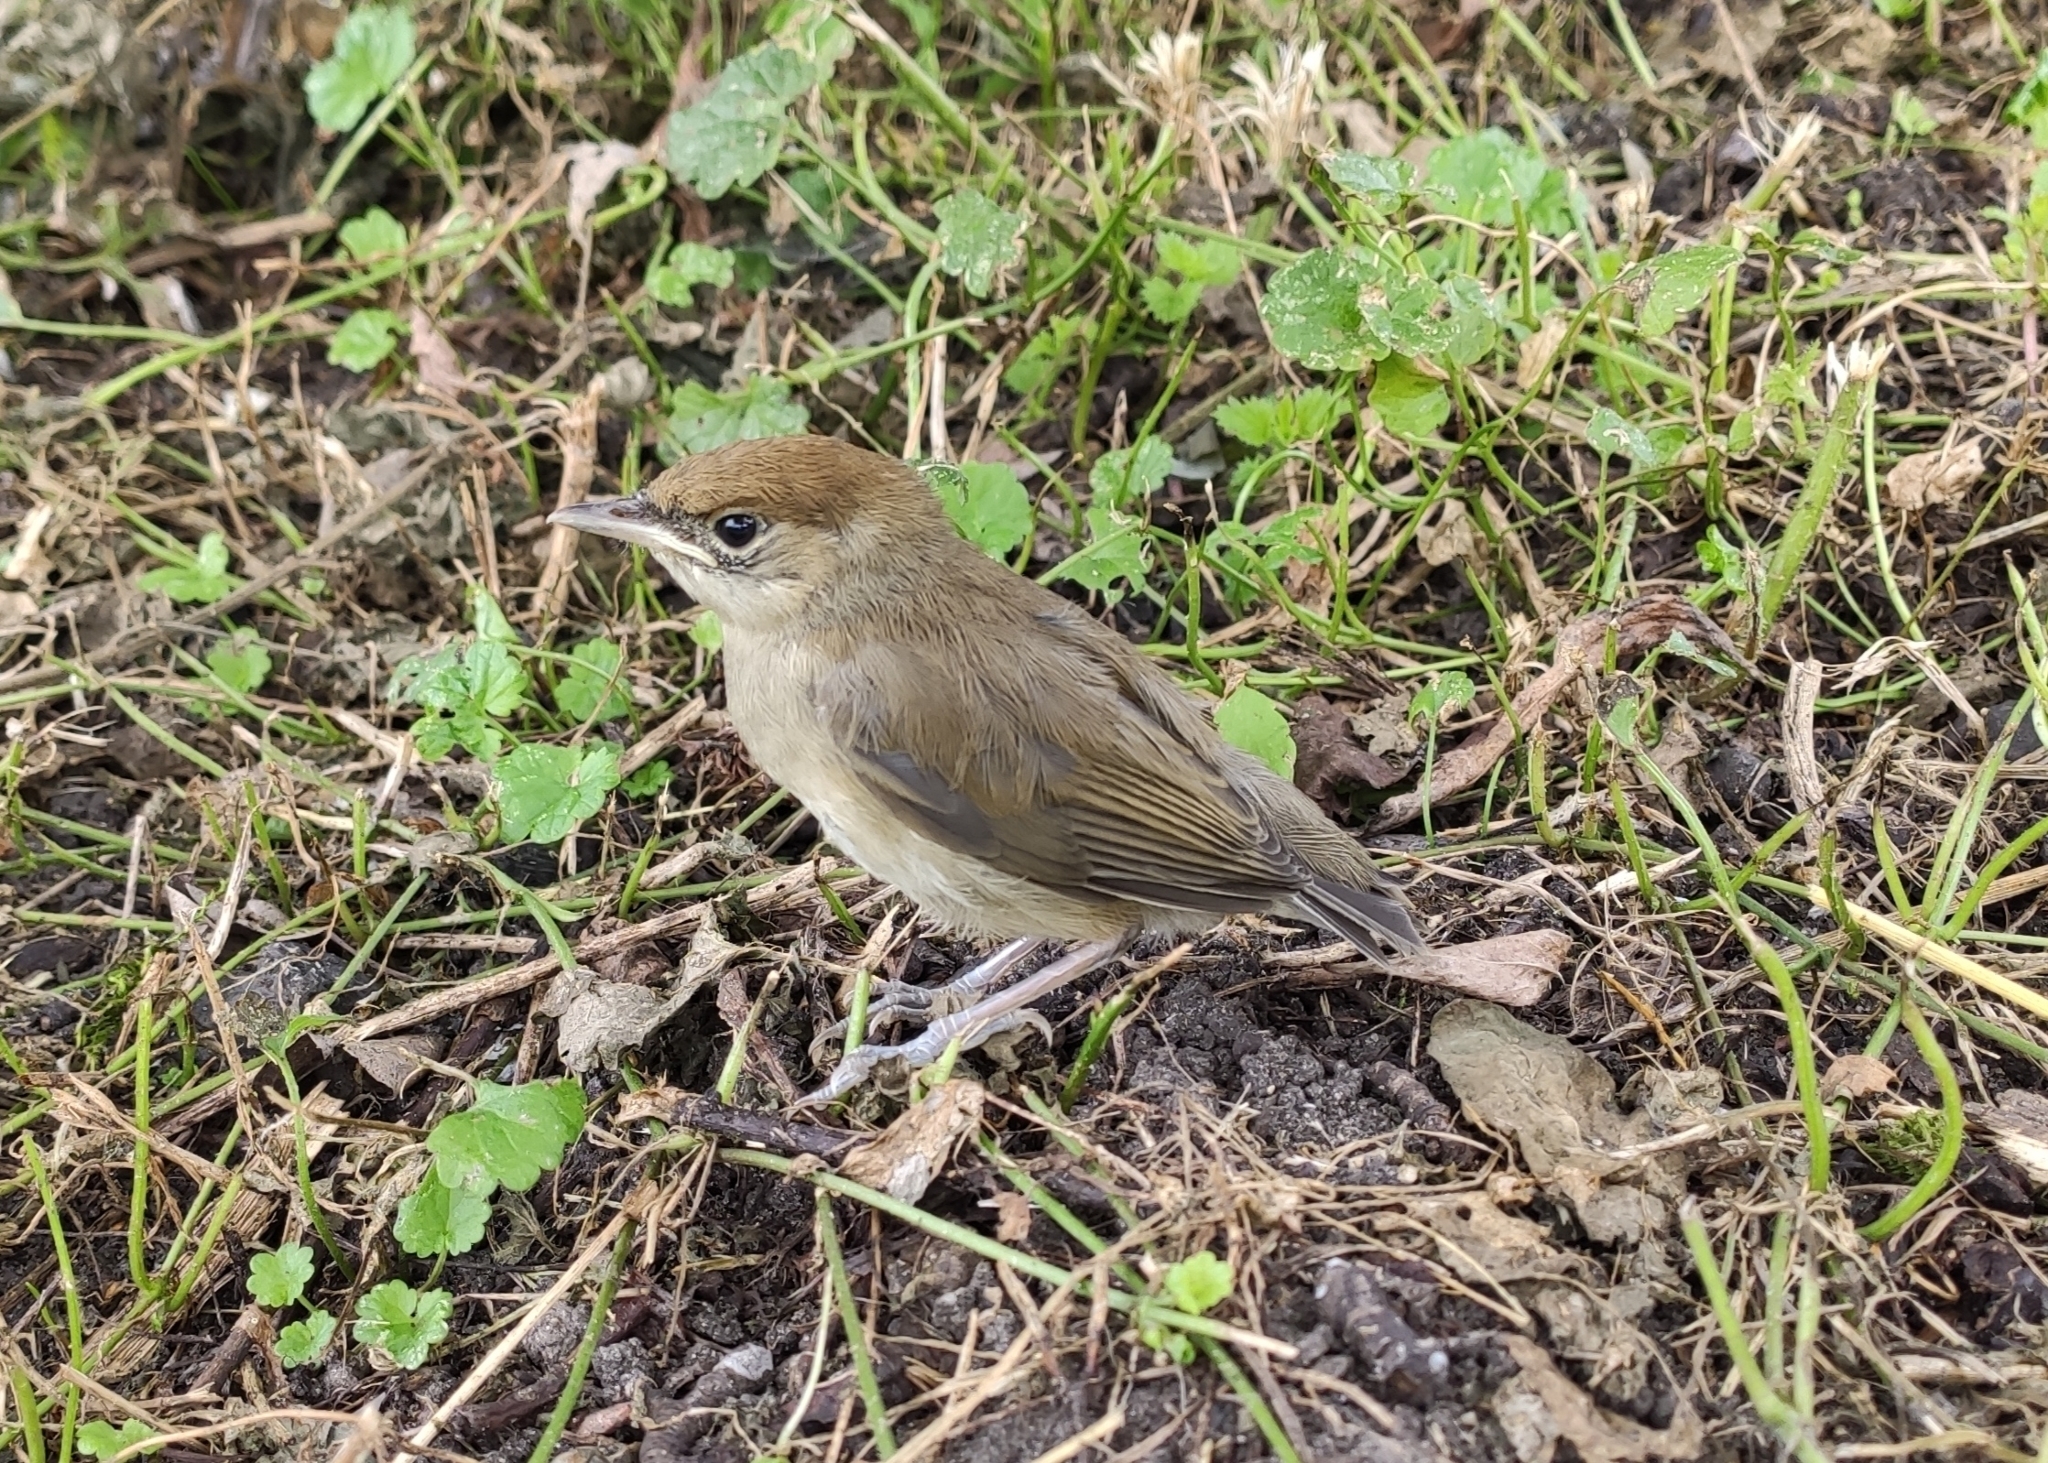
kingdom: Animalia
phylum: Chordata
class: Aves
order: Passeriformes
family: Sylviidae
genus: Sylvia
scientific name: Sylvia atricapilla
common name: Eurasian blackcap
